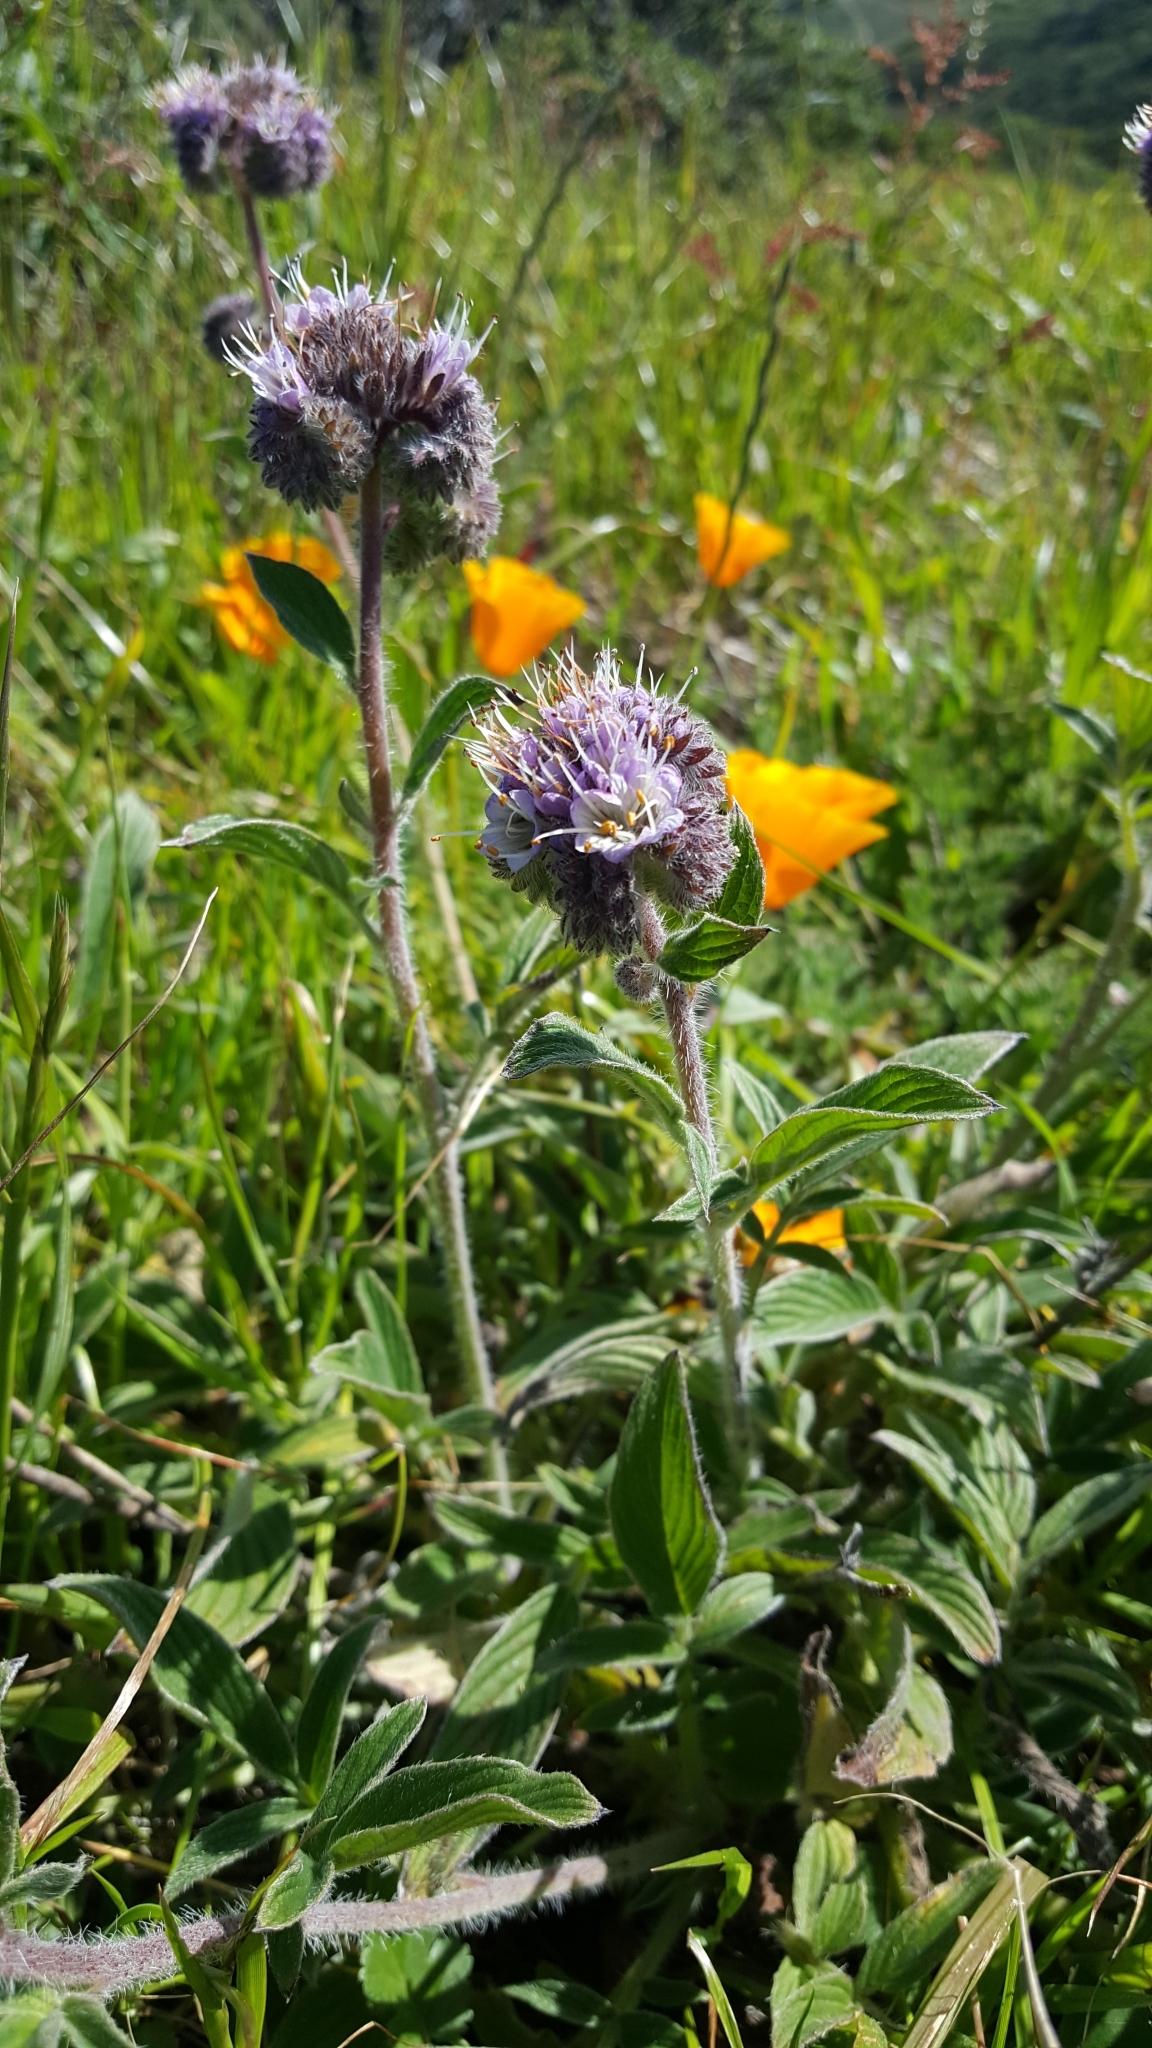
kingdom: Plantae
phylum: Tracheophyta
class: Magnoliopsida
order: Boraginales
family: Hydrophyllaceae
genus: Phacelia
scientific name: Phacelia californica
